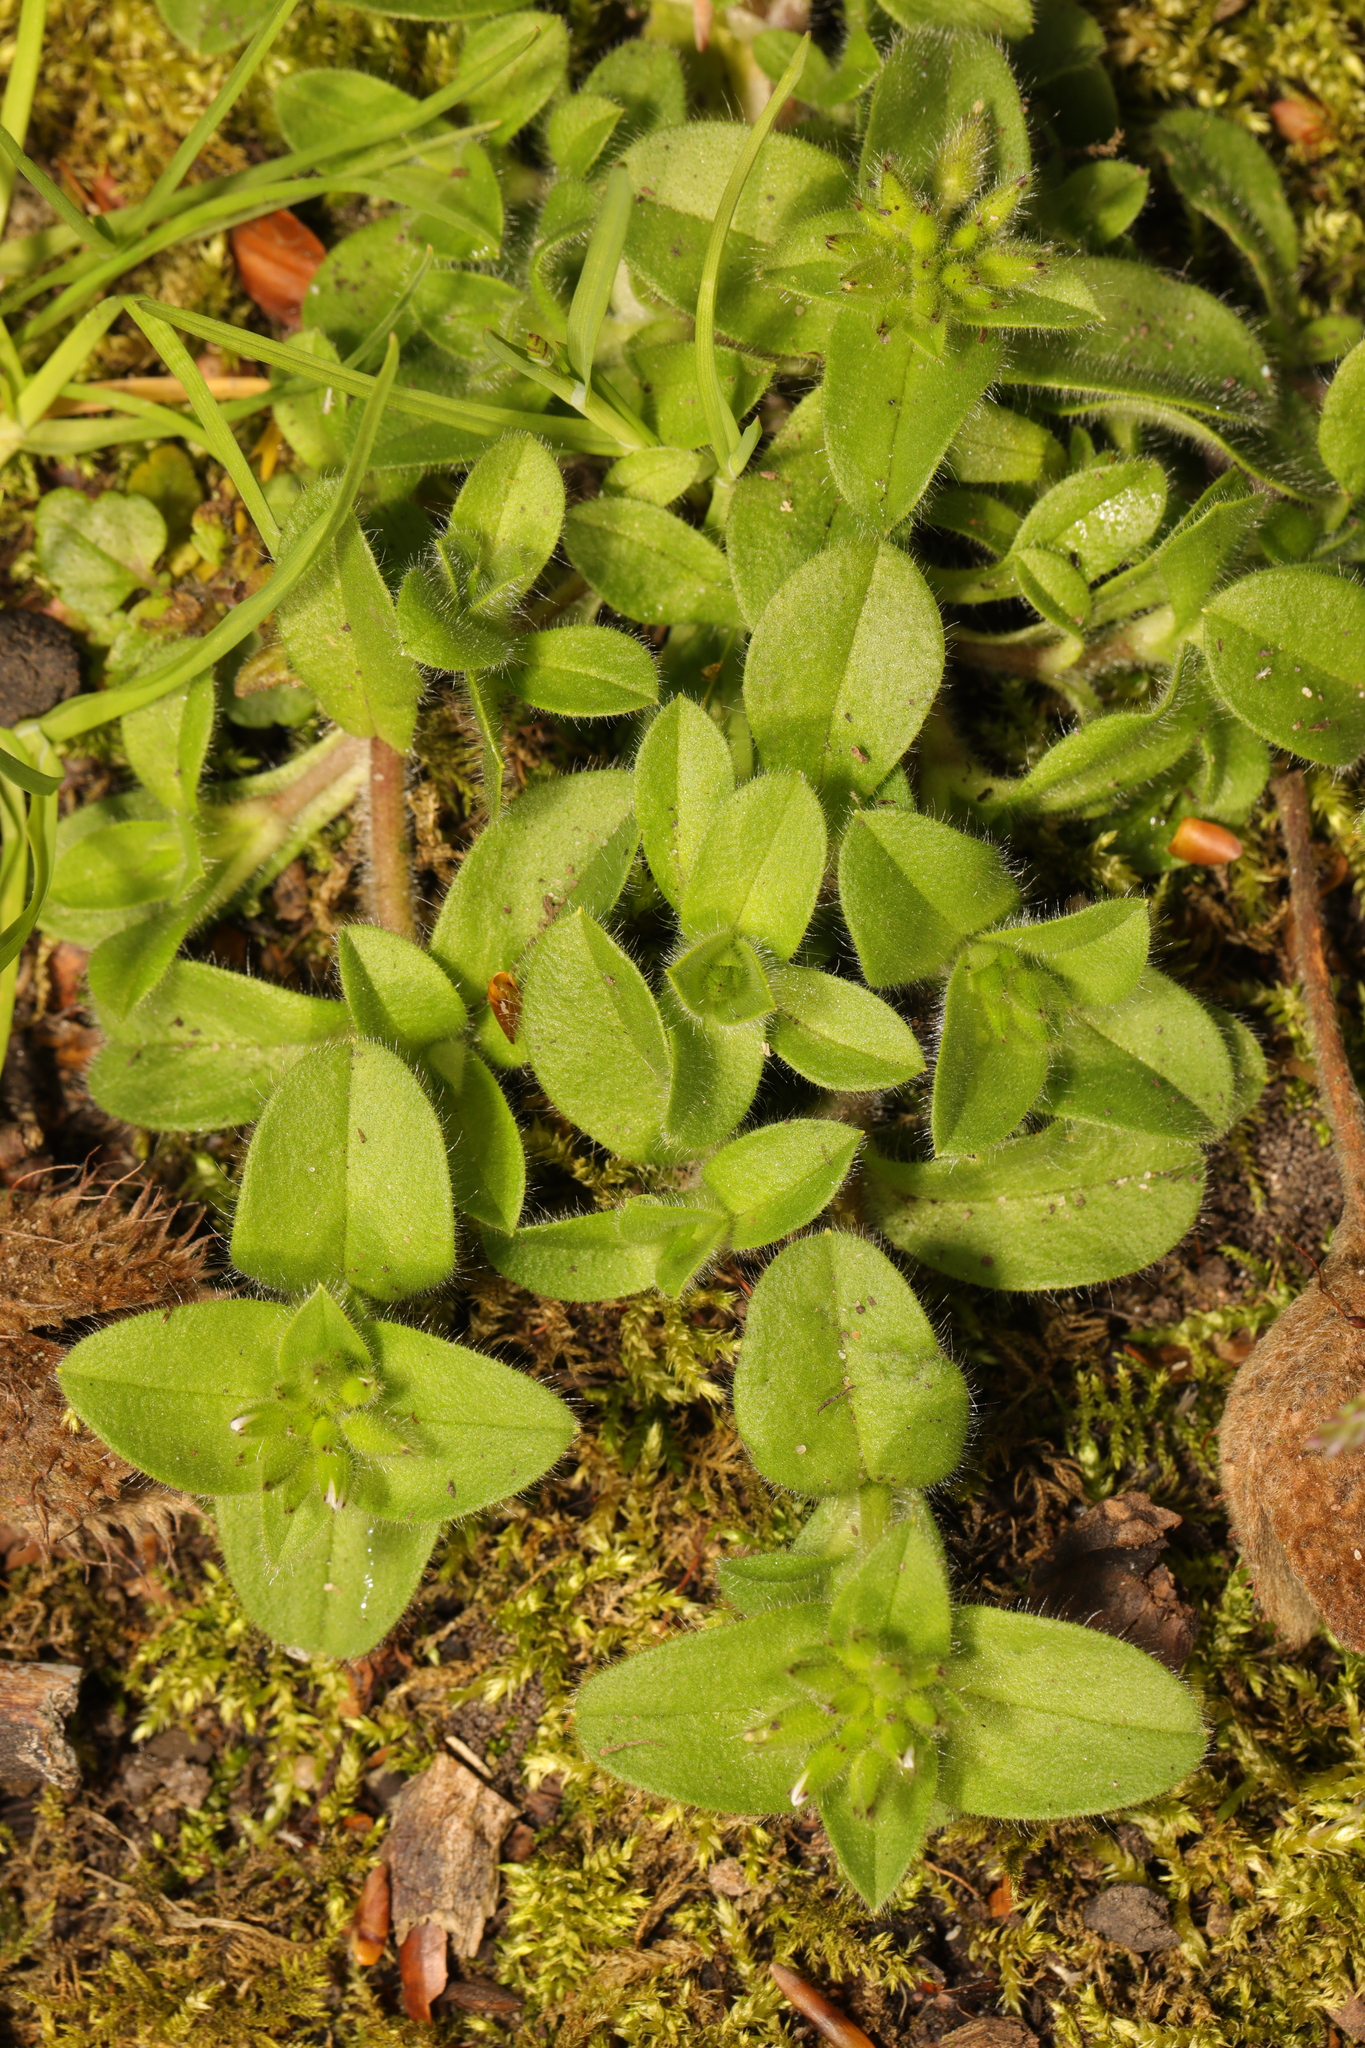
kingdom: Plantae
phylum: Tracheophyta
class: Magnoliopsida
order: Caryophyllales
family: Caryophyllaceae
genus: Cerastium
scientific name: Cerastium glomeratum
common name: Sticky chickweed
